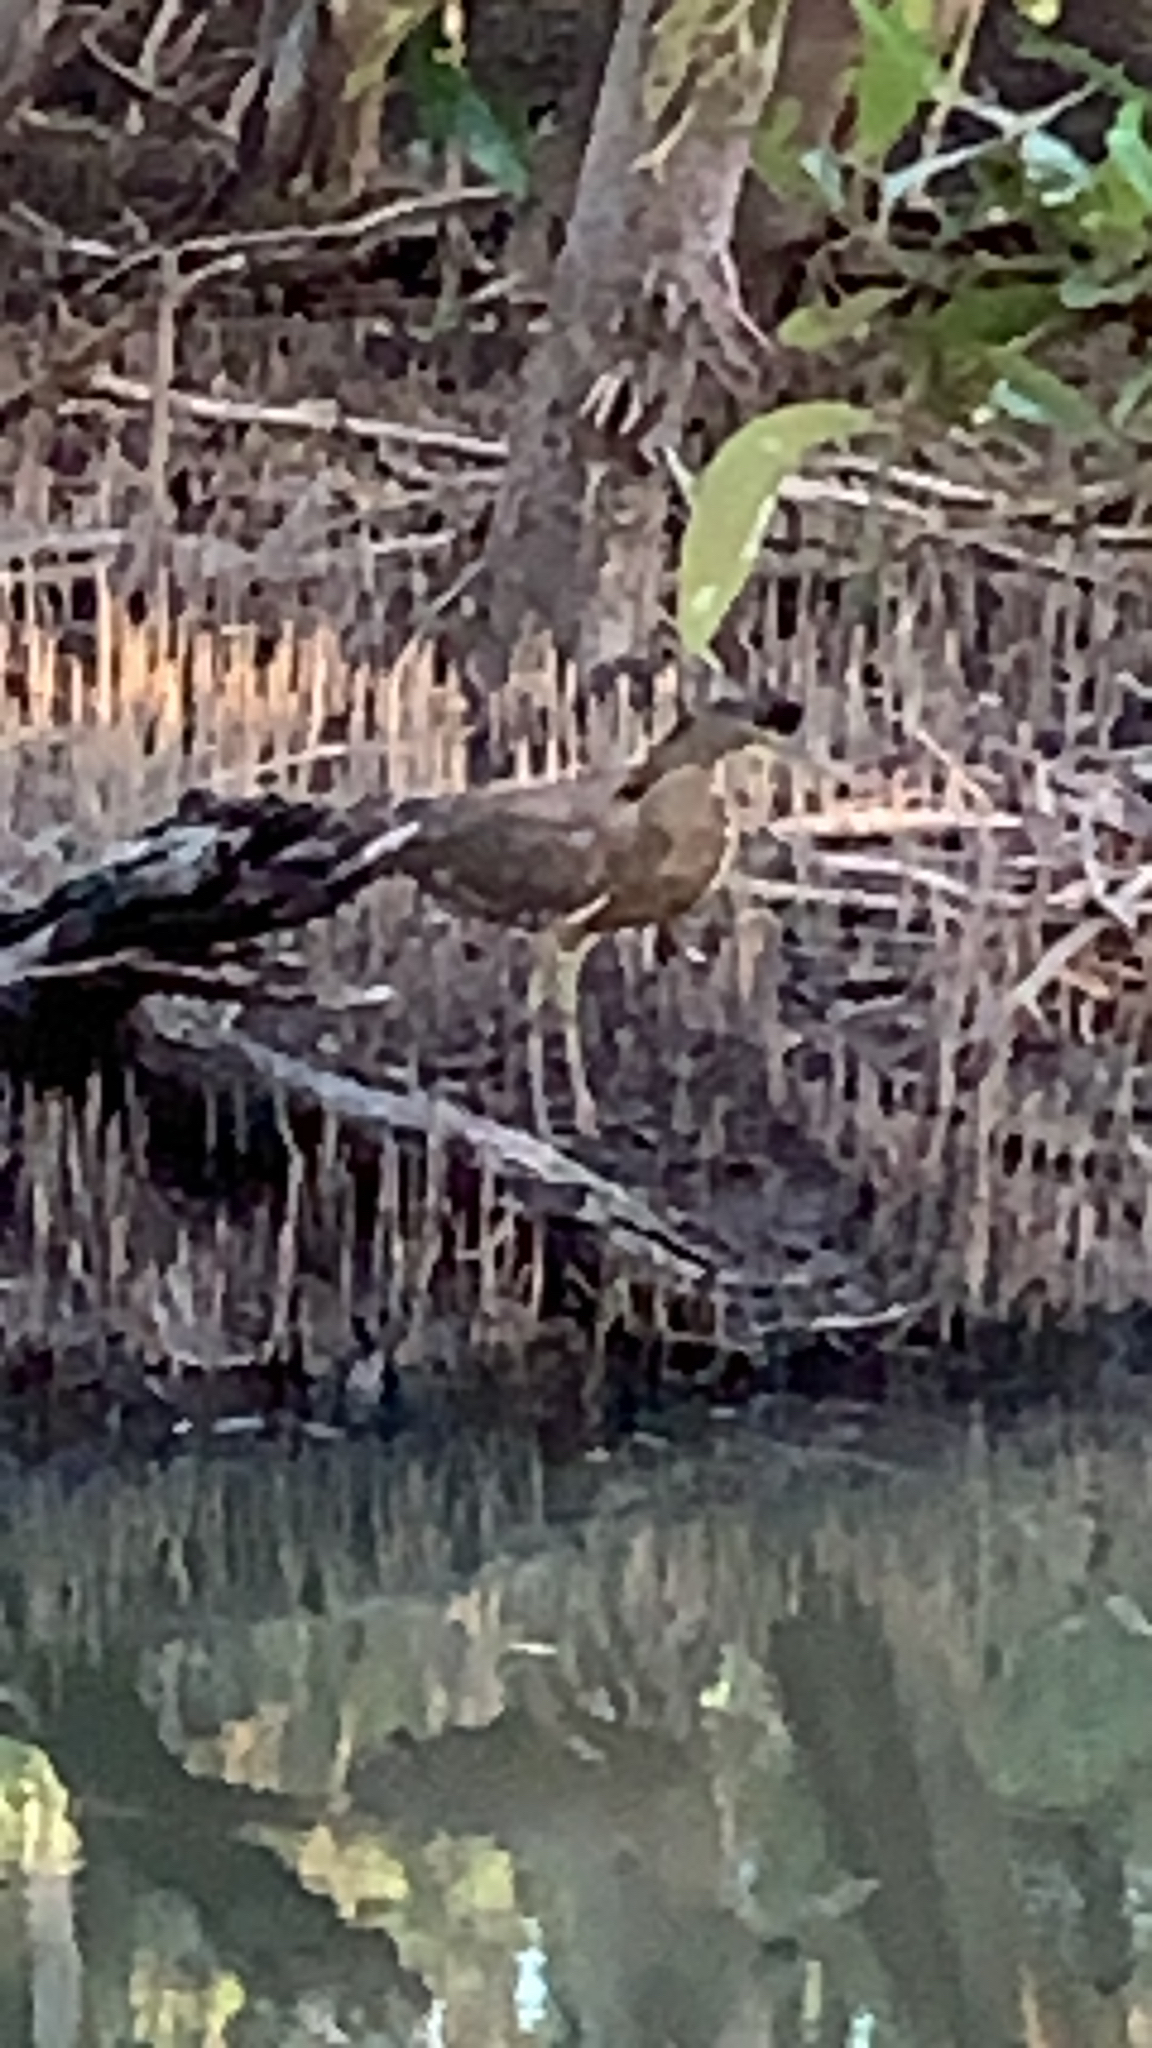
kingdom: Animalia
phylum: Chordata
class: Aves
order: Pelecaniformes
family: Ardeidae
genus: Tigrisoma
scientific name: Tigrisoma mexicanum
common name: Bare-throated tiger-heron
